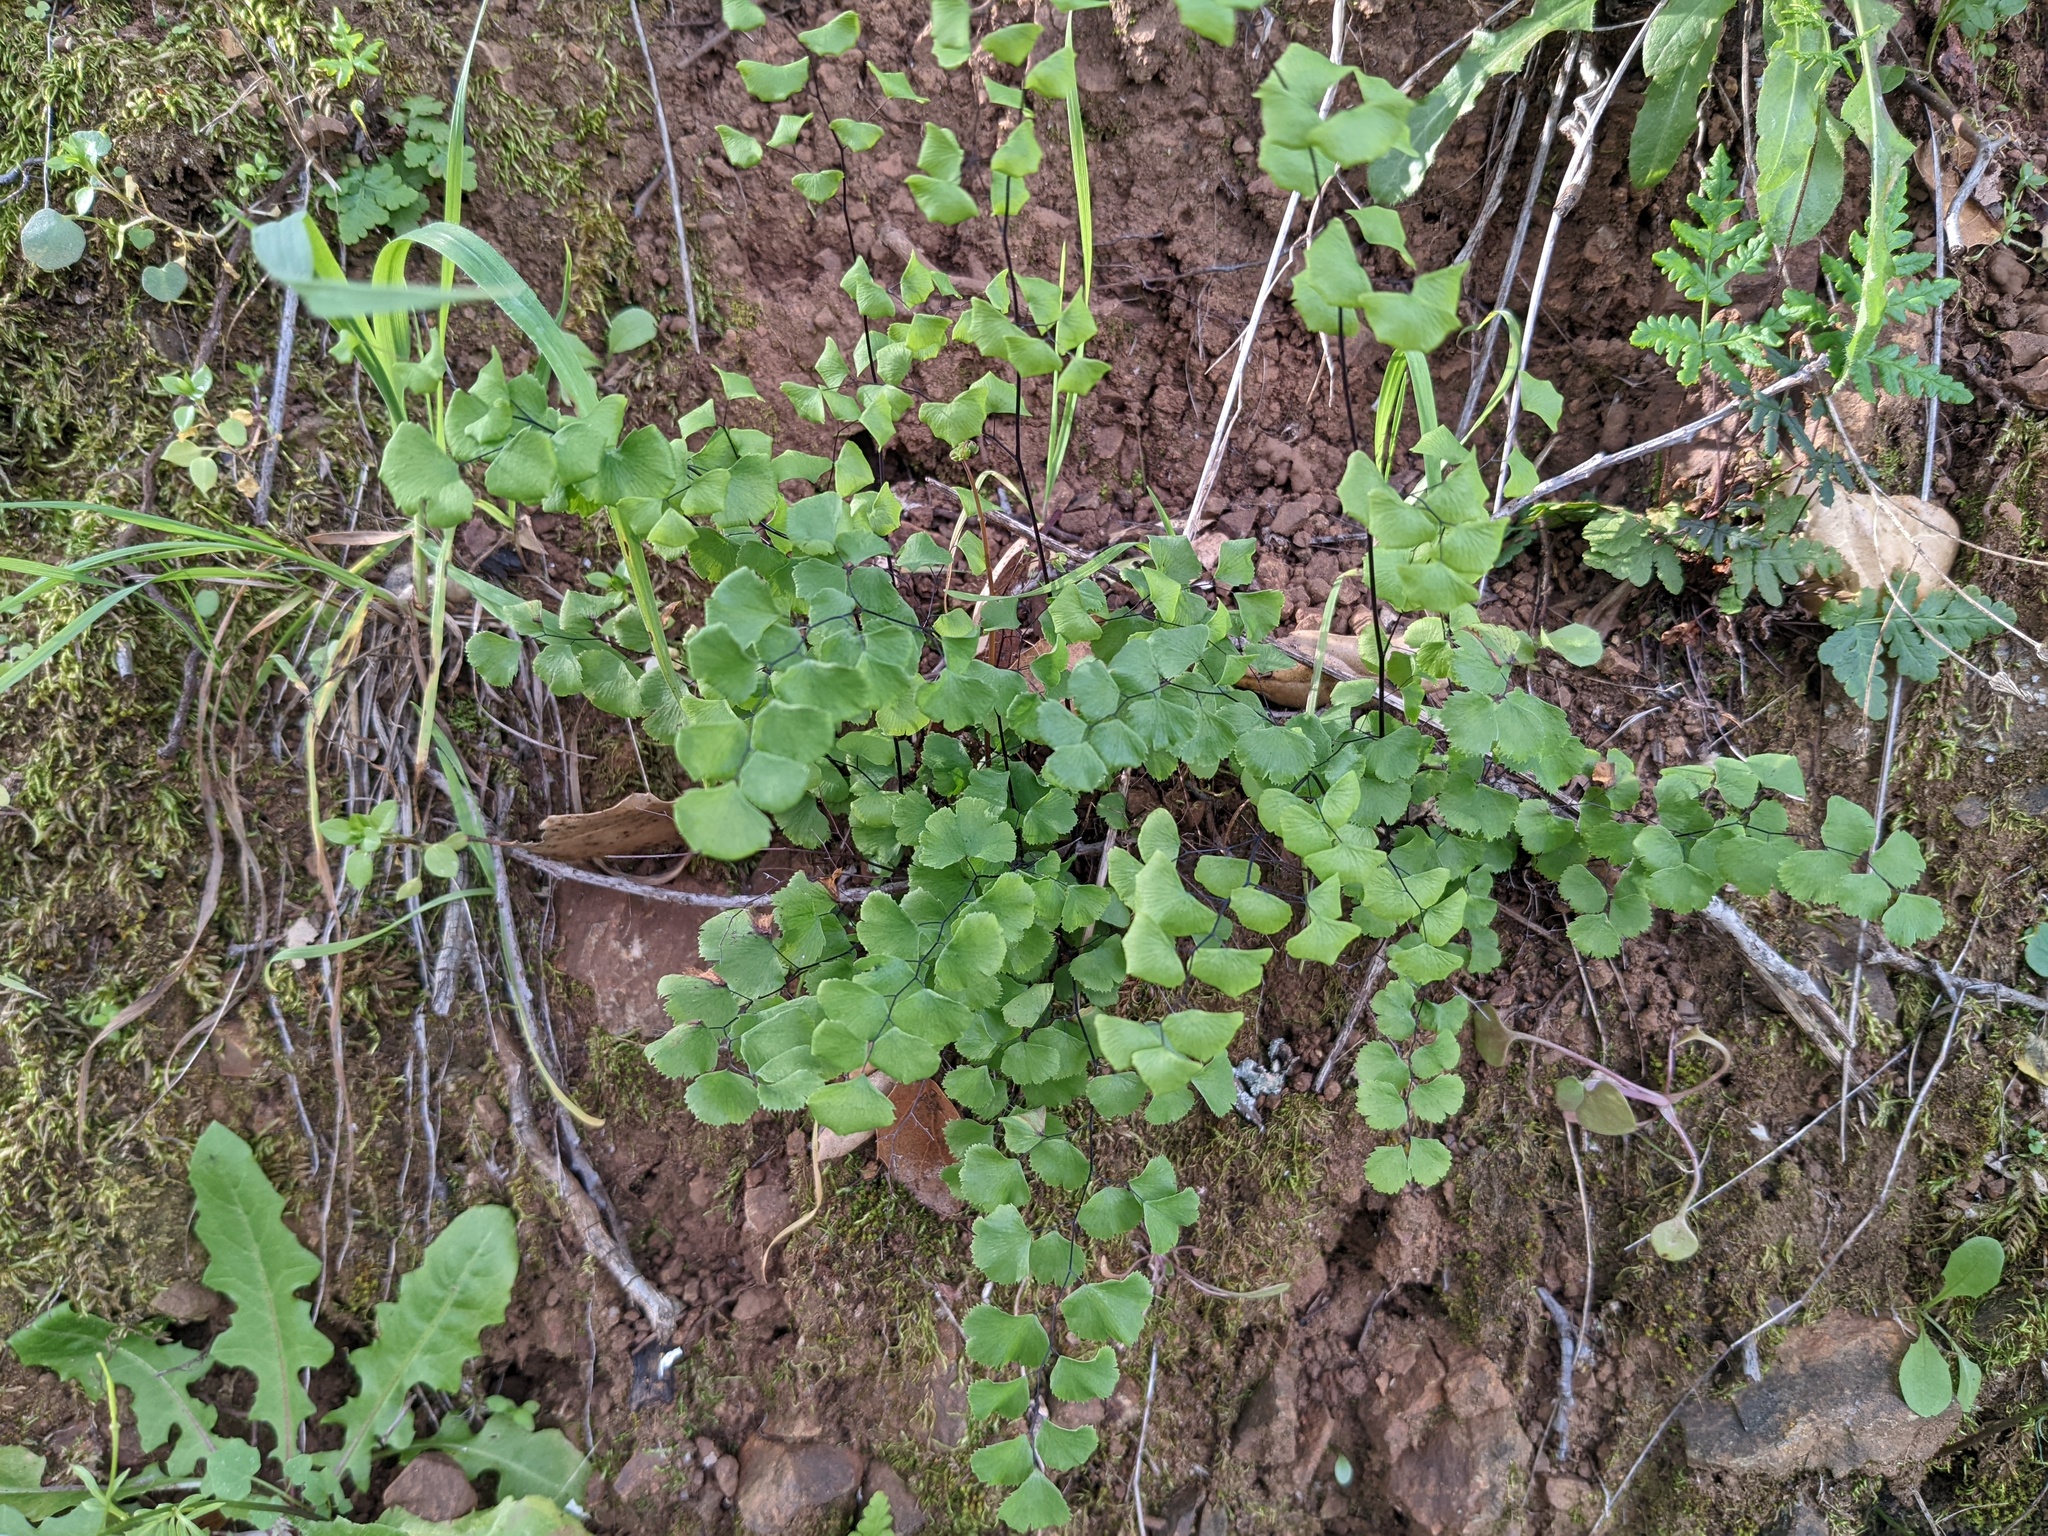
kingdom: Plantae
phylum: Tracheophyta
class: Polypodiopsida
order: Polypodiales
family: Pteridaceae
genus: Adiantum
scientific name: Adiantum jordanii
